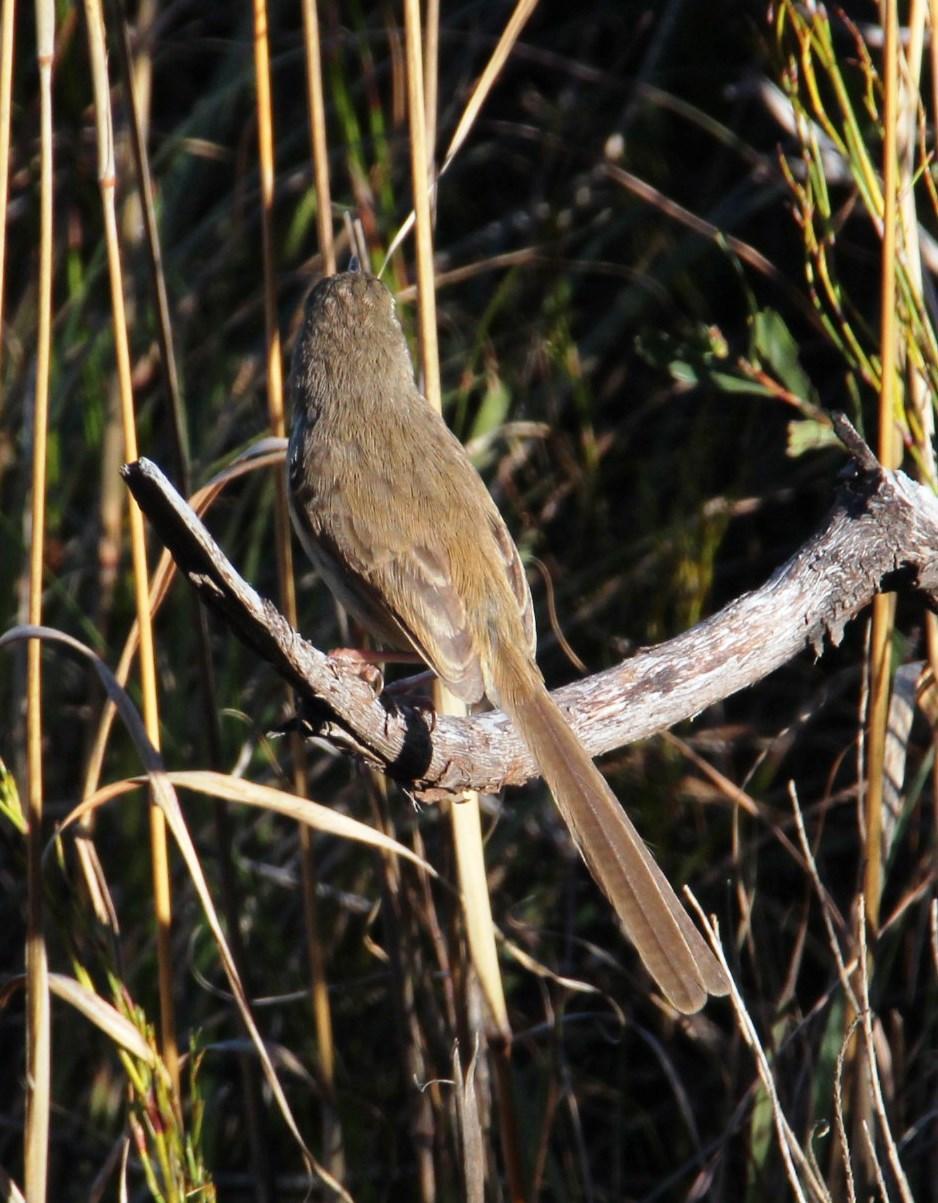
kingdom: Animalia
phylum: Chordata
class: Aves
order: Passeriformes
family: Cisticolidae
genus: Prinia
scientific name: Prinia maculosa
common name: Karoo prinia
